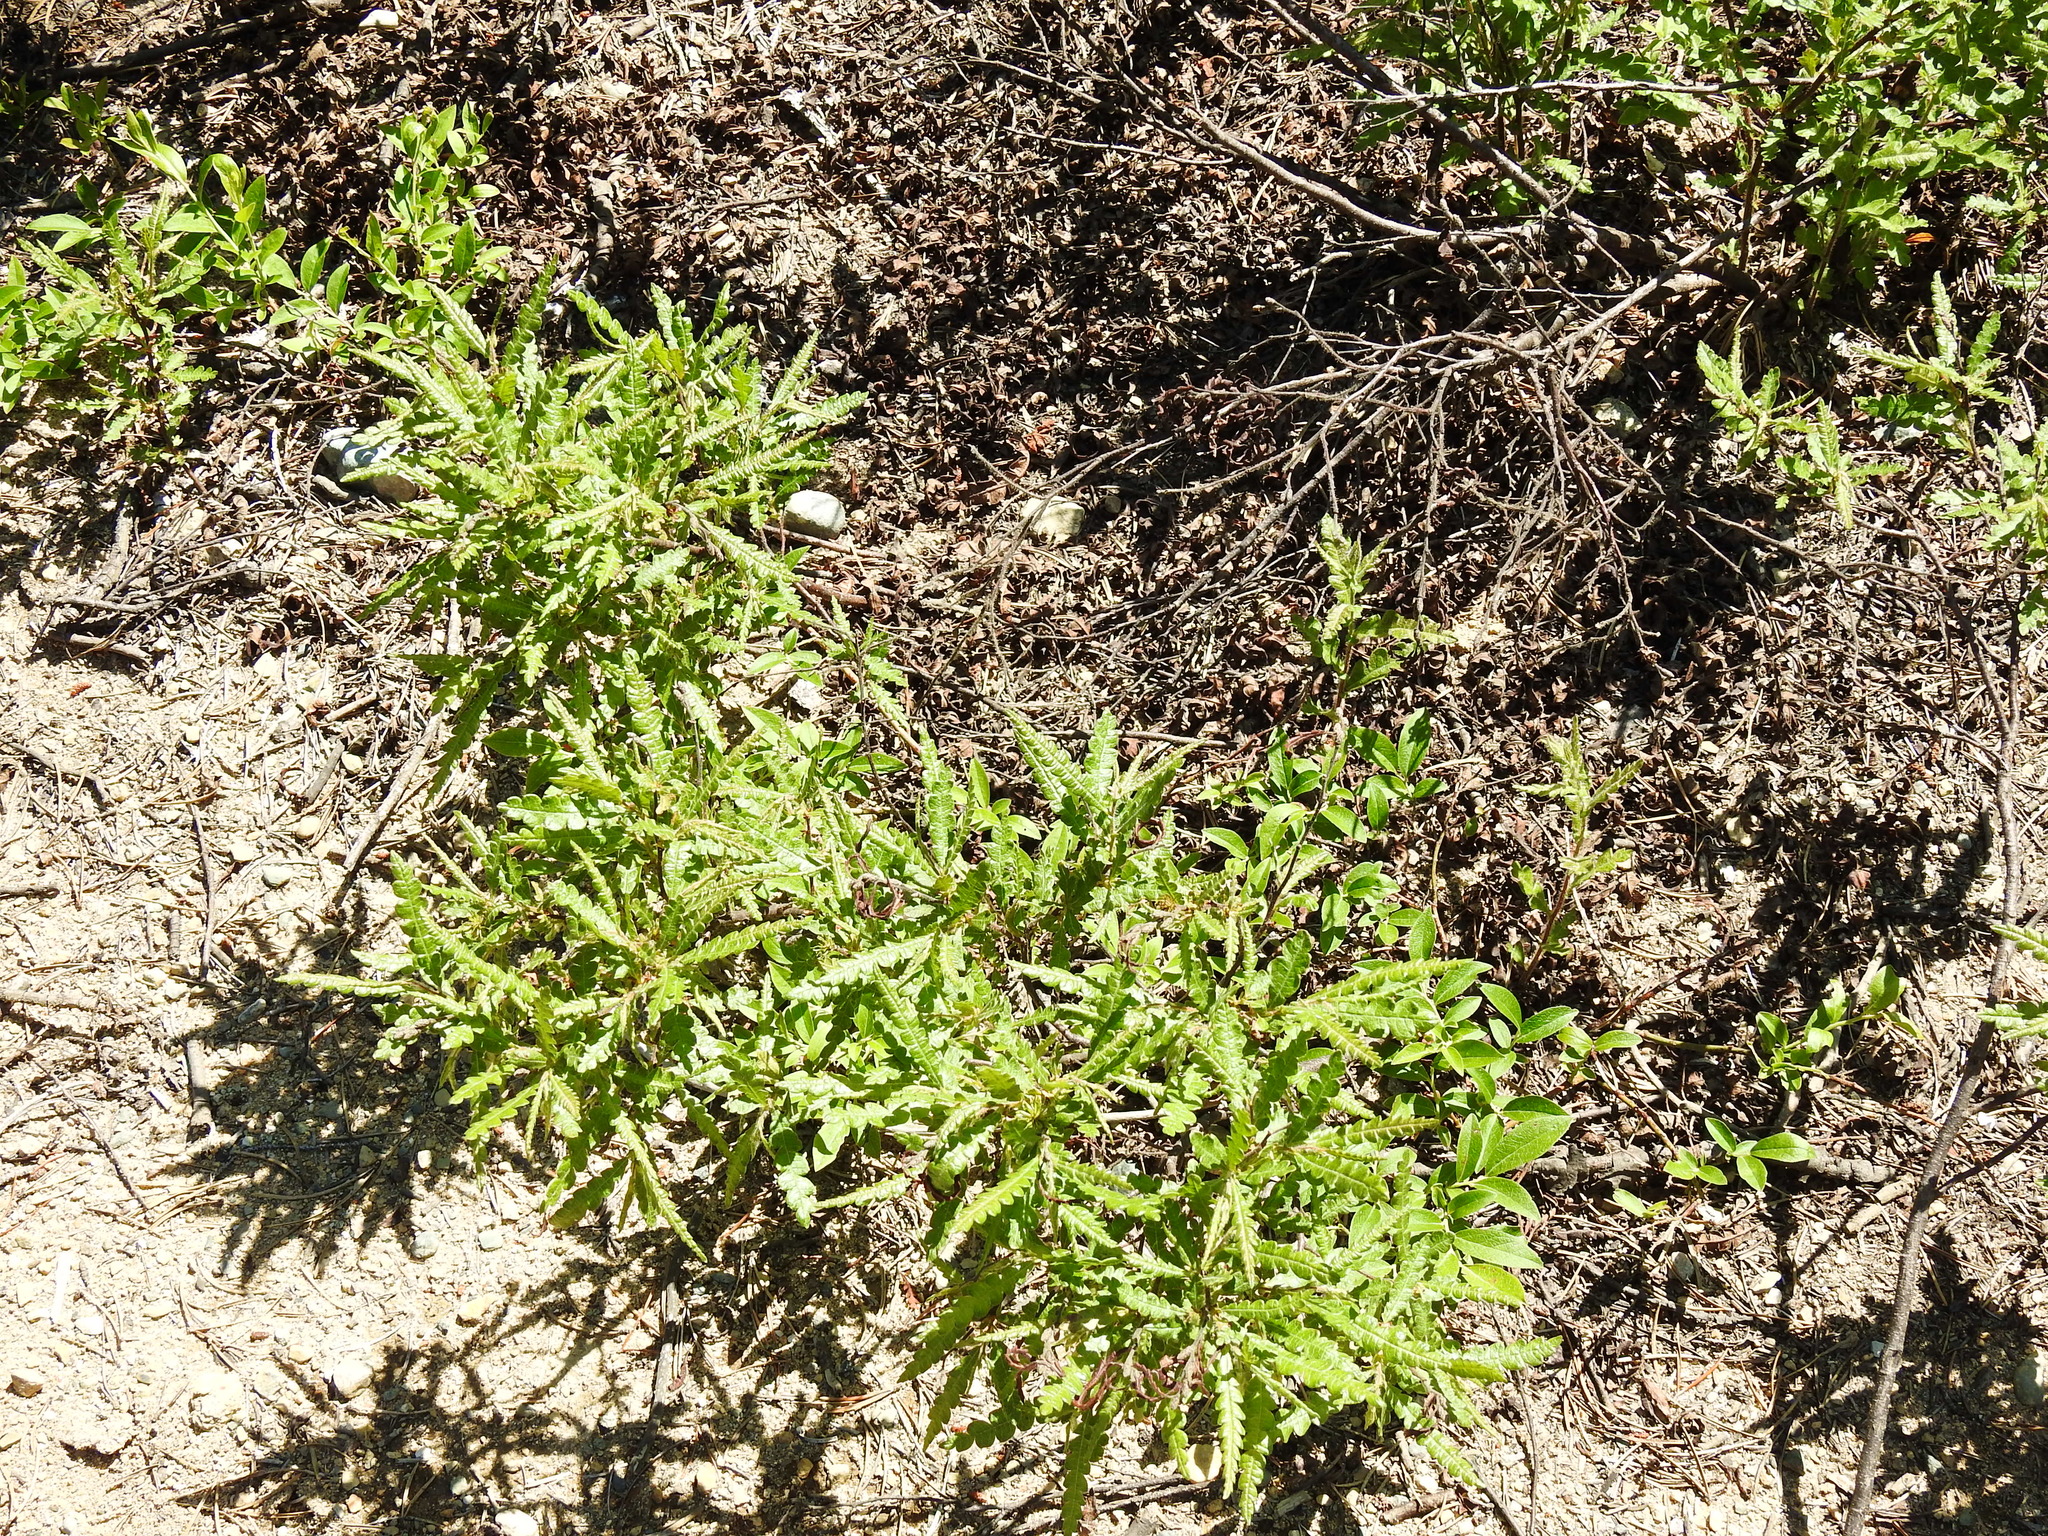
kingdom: Plantae
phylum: Tracheophyta
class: Magnoliopsida
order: Fagales
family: Myricaceae
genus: Comptonia
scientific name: Comptonia peregrina
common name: Sweet-fern
